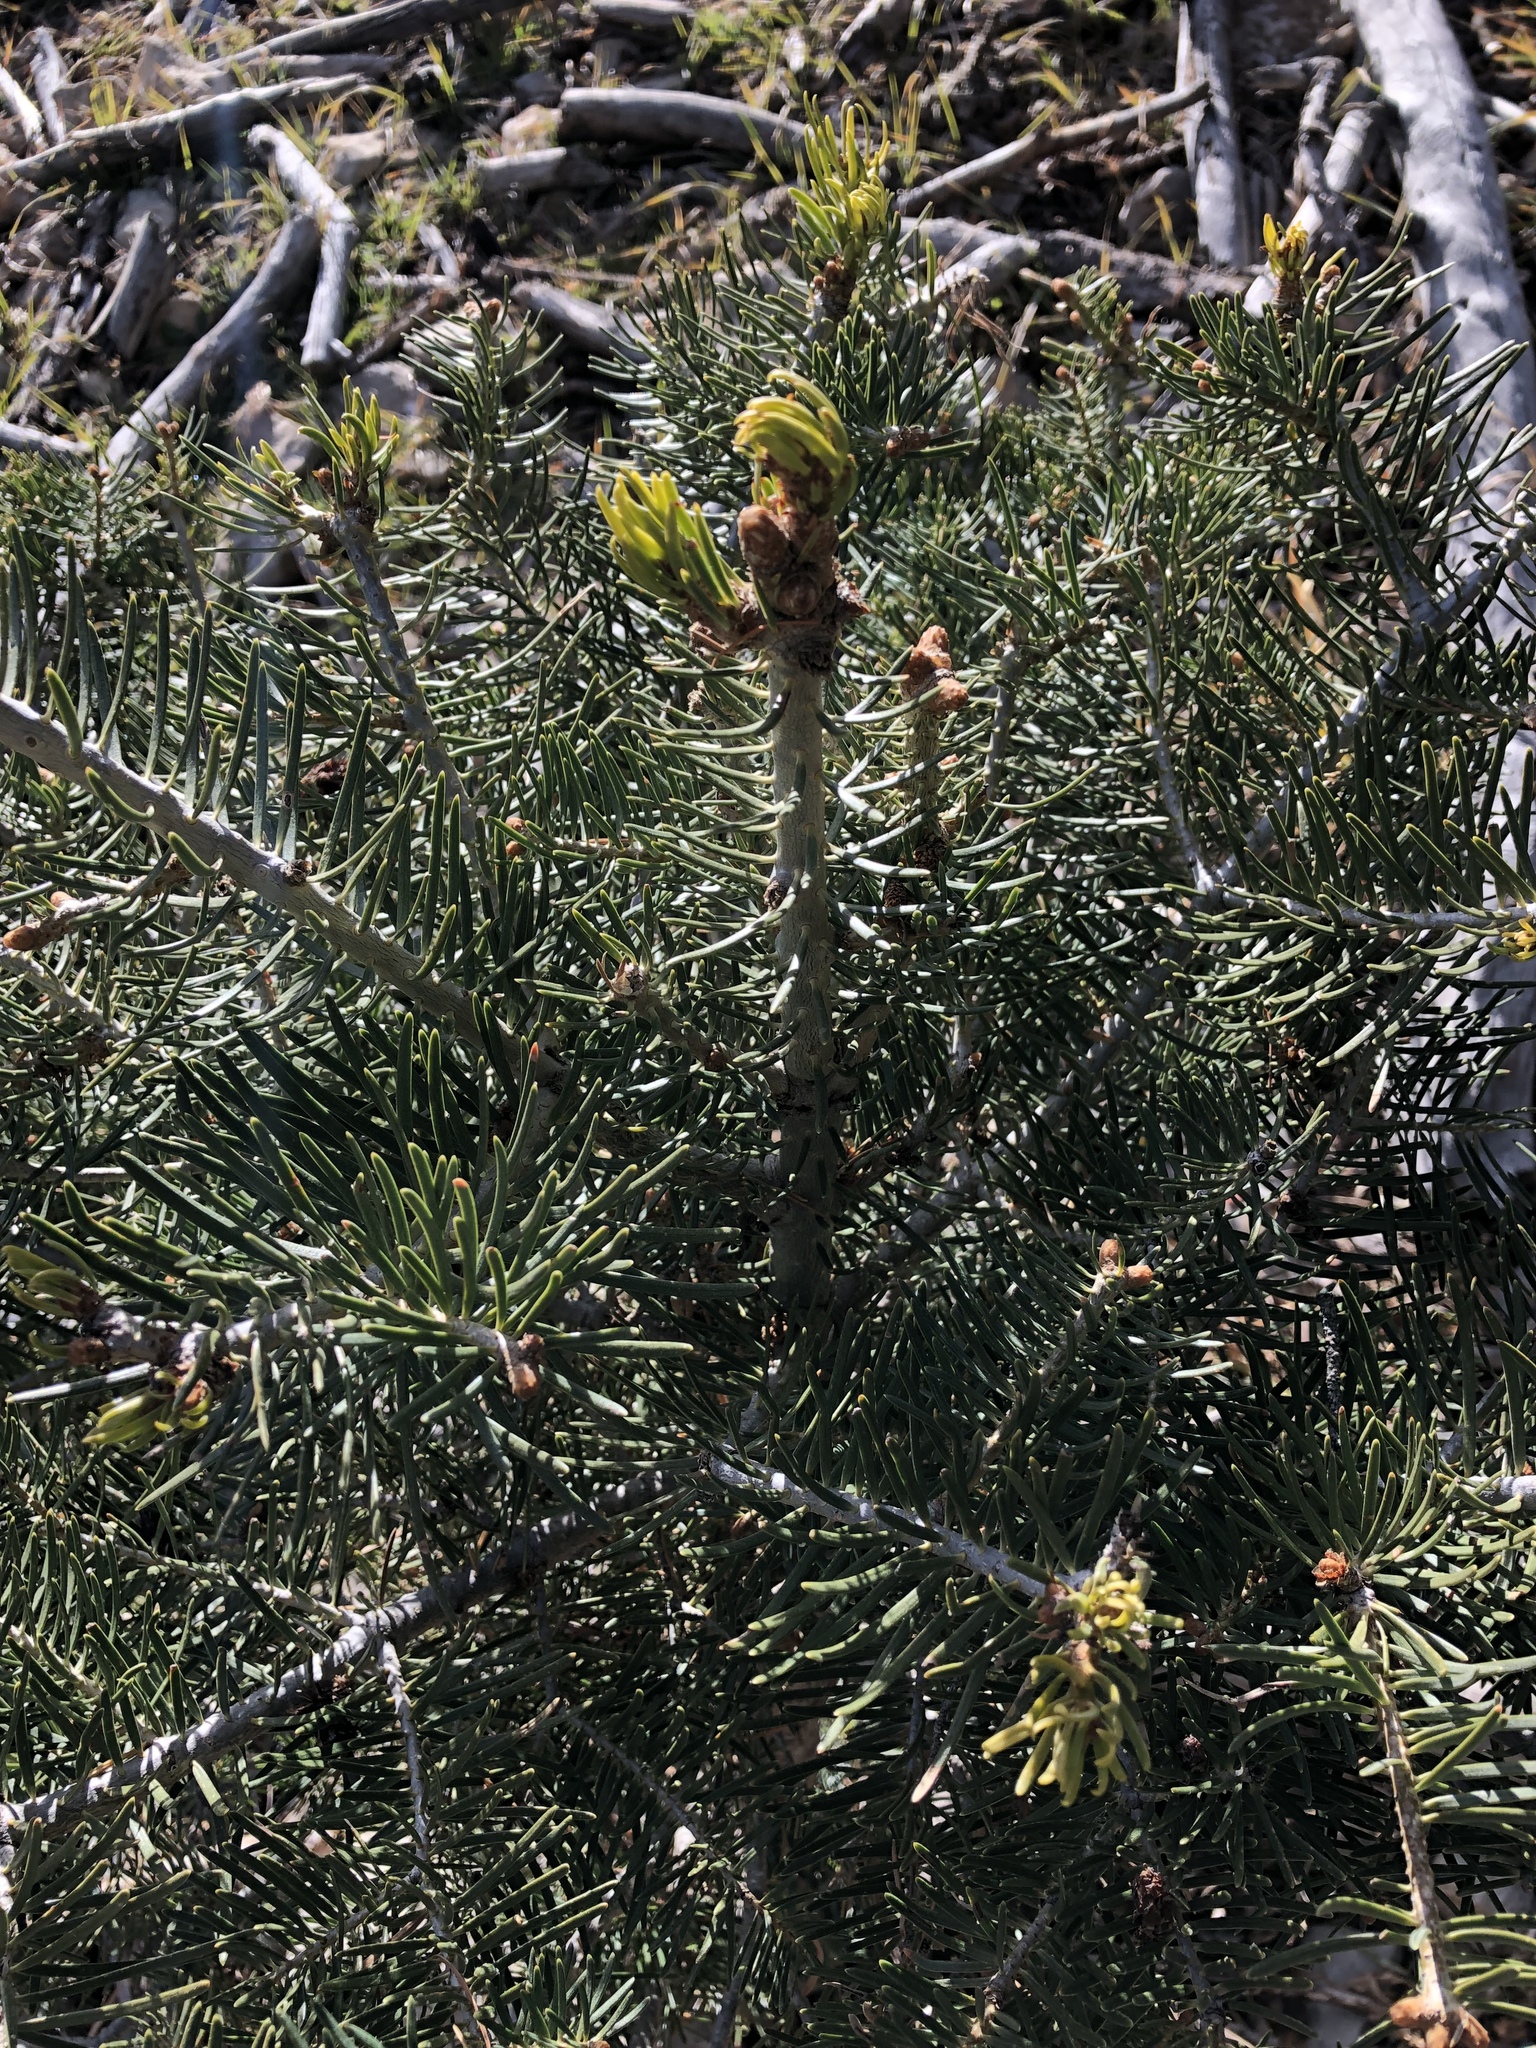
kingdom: Plantae
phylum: Tracheophyta
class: Pinopsida
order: Pinales
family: Pinaceae
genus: Abies
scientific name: Abies concolor
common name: Colorado fir
